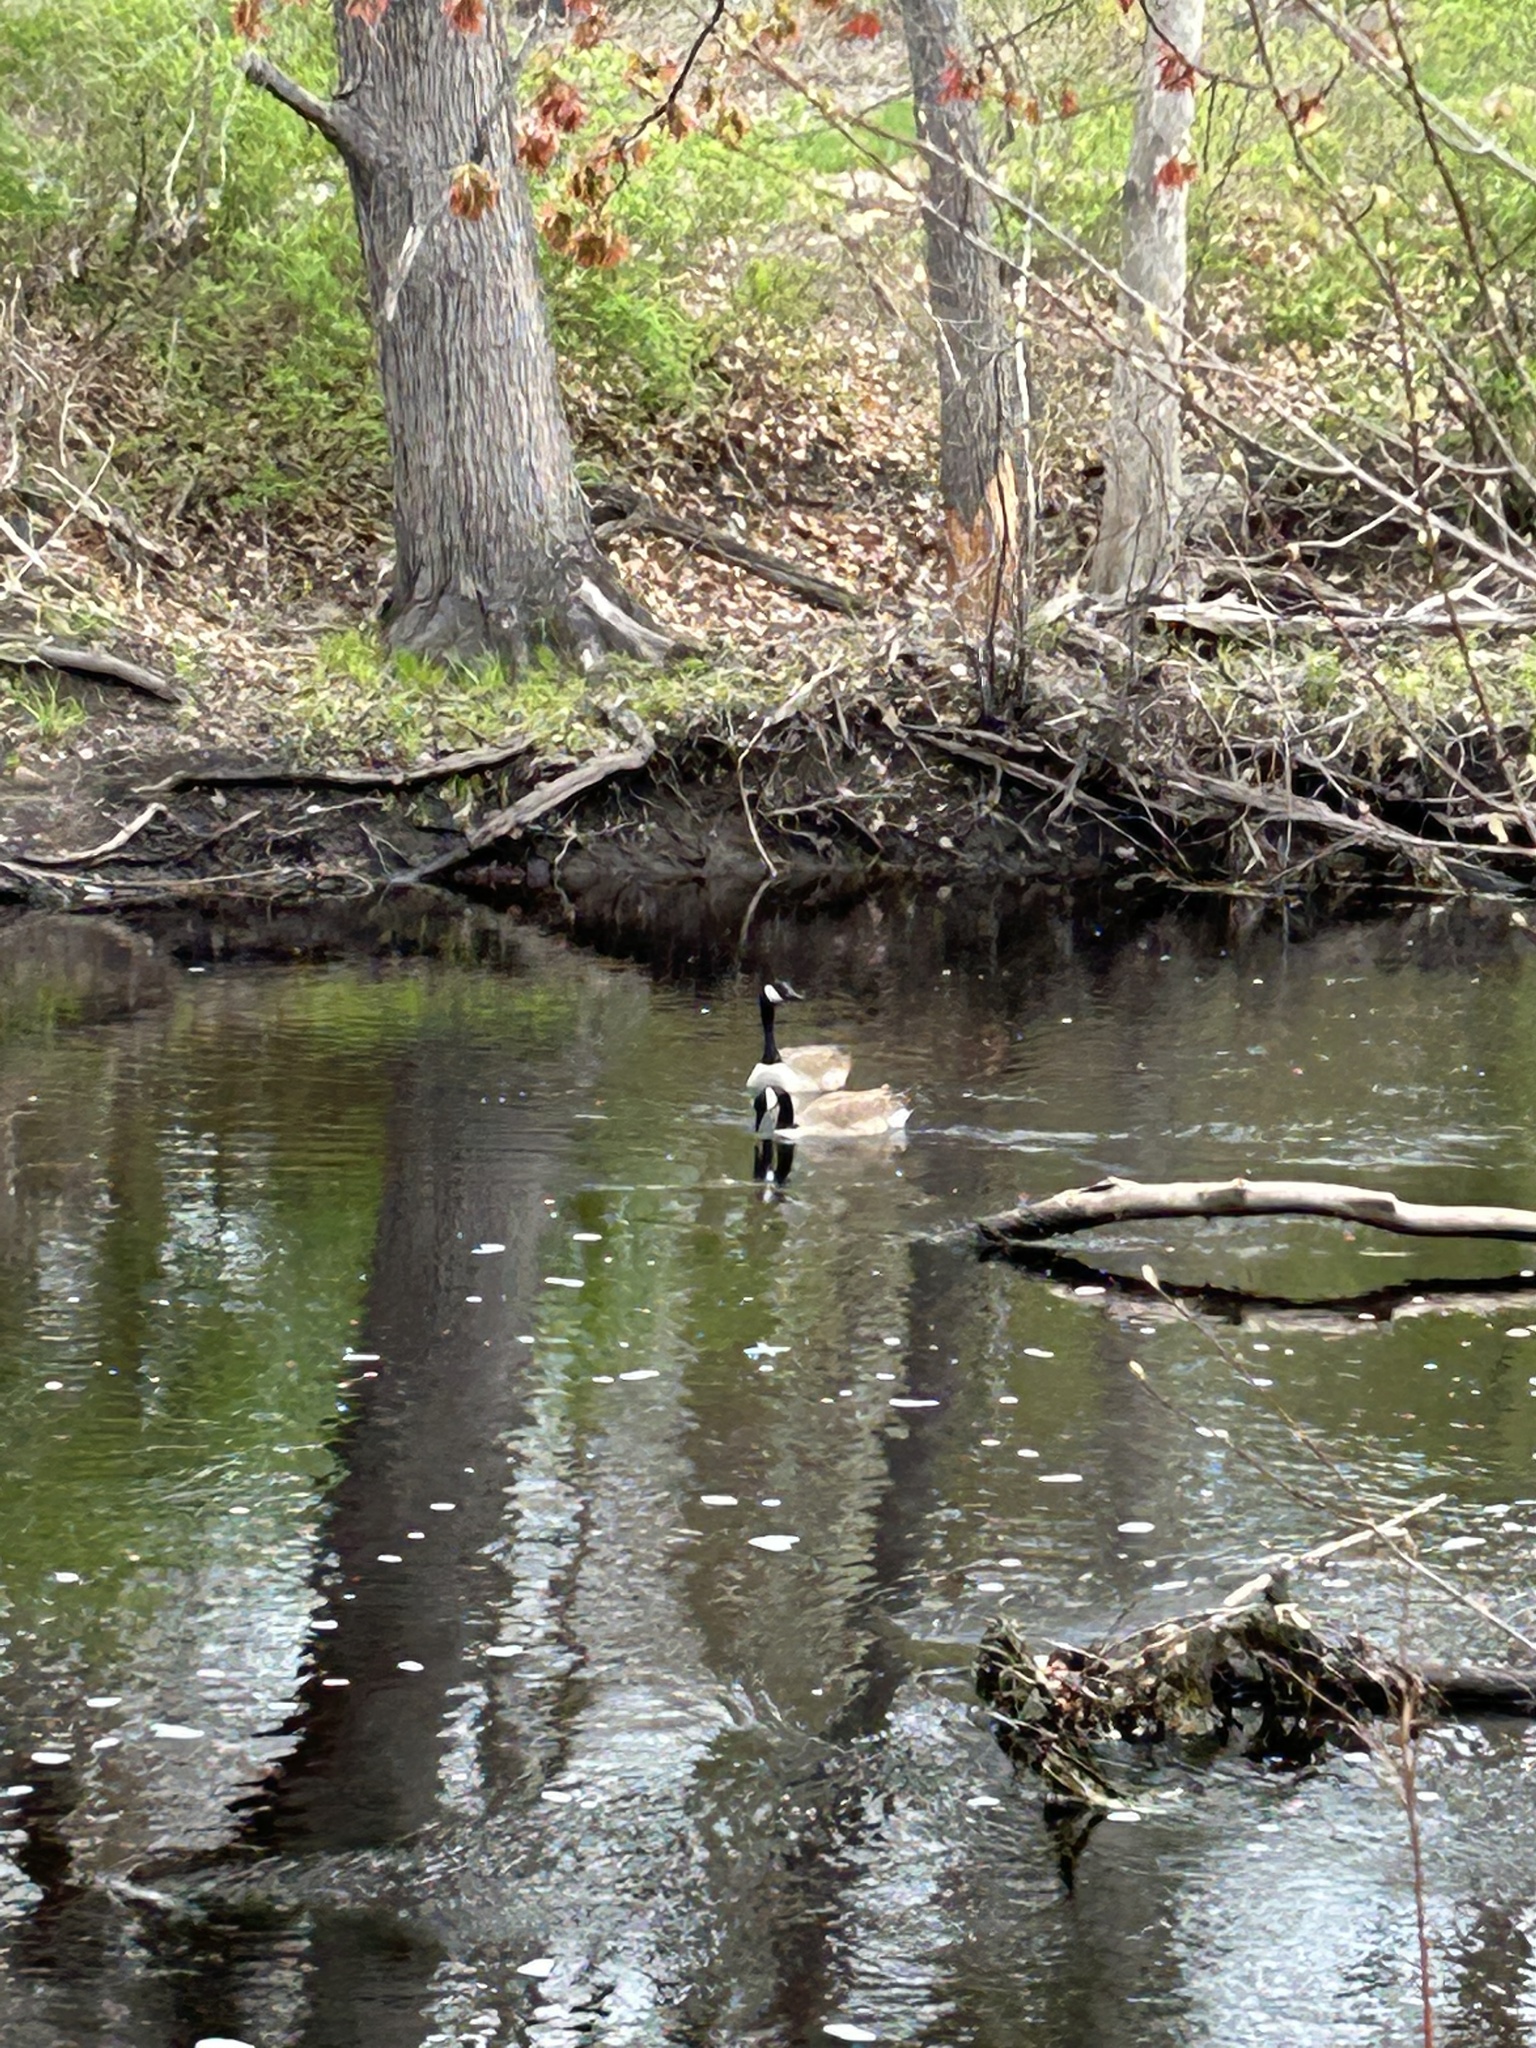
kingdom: Animalia
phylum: Chordata
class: Aves
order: Anseriformes
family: Anatidae
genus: Branta
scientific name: Branta canadensis
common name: Canada goose
